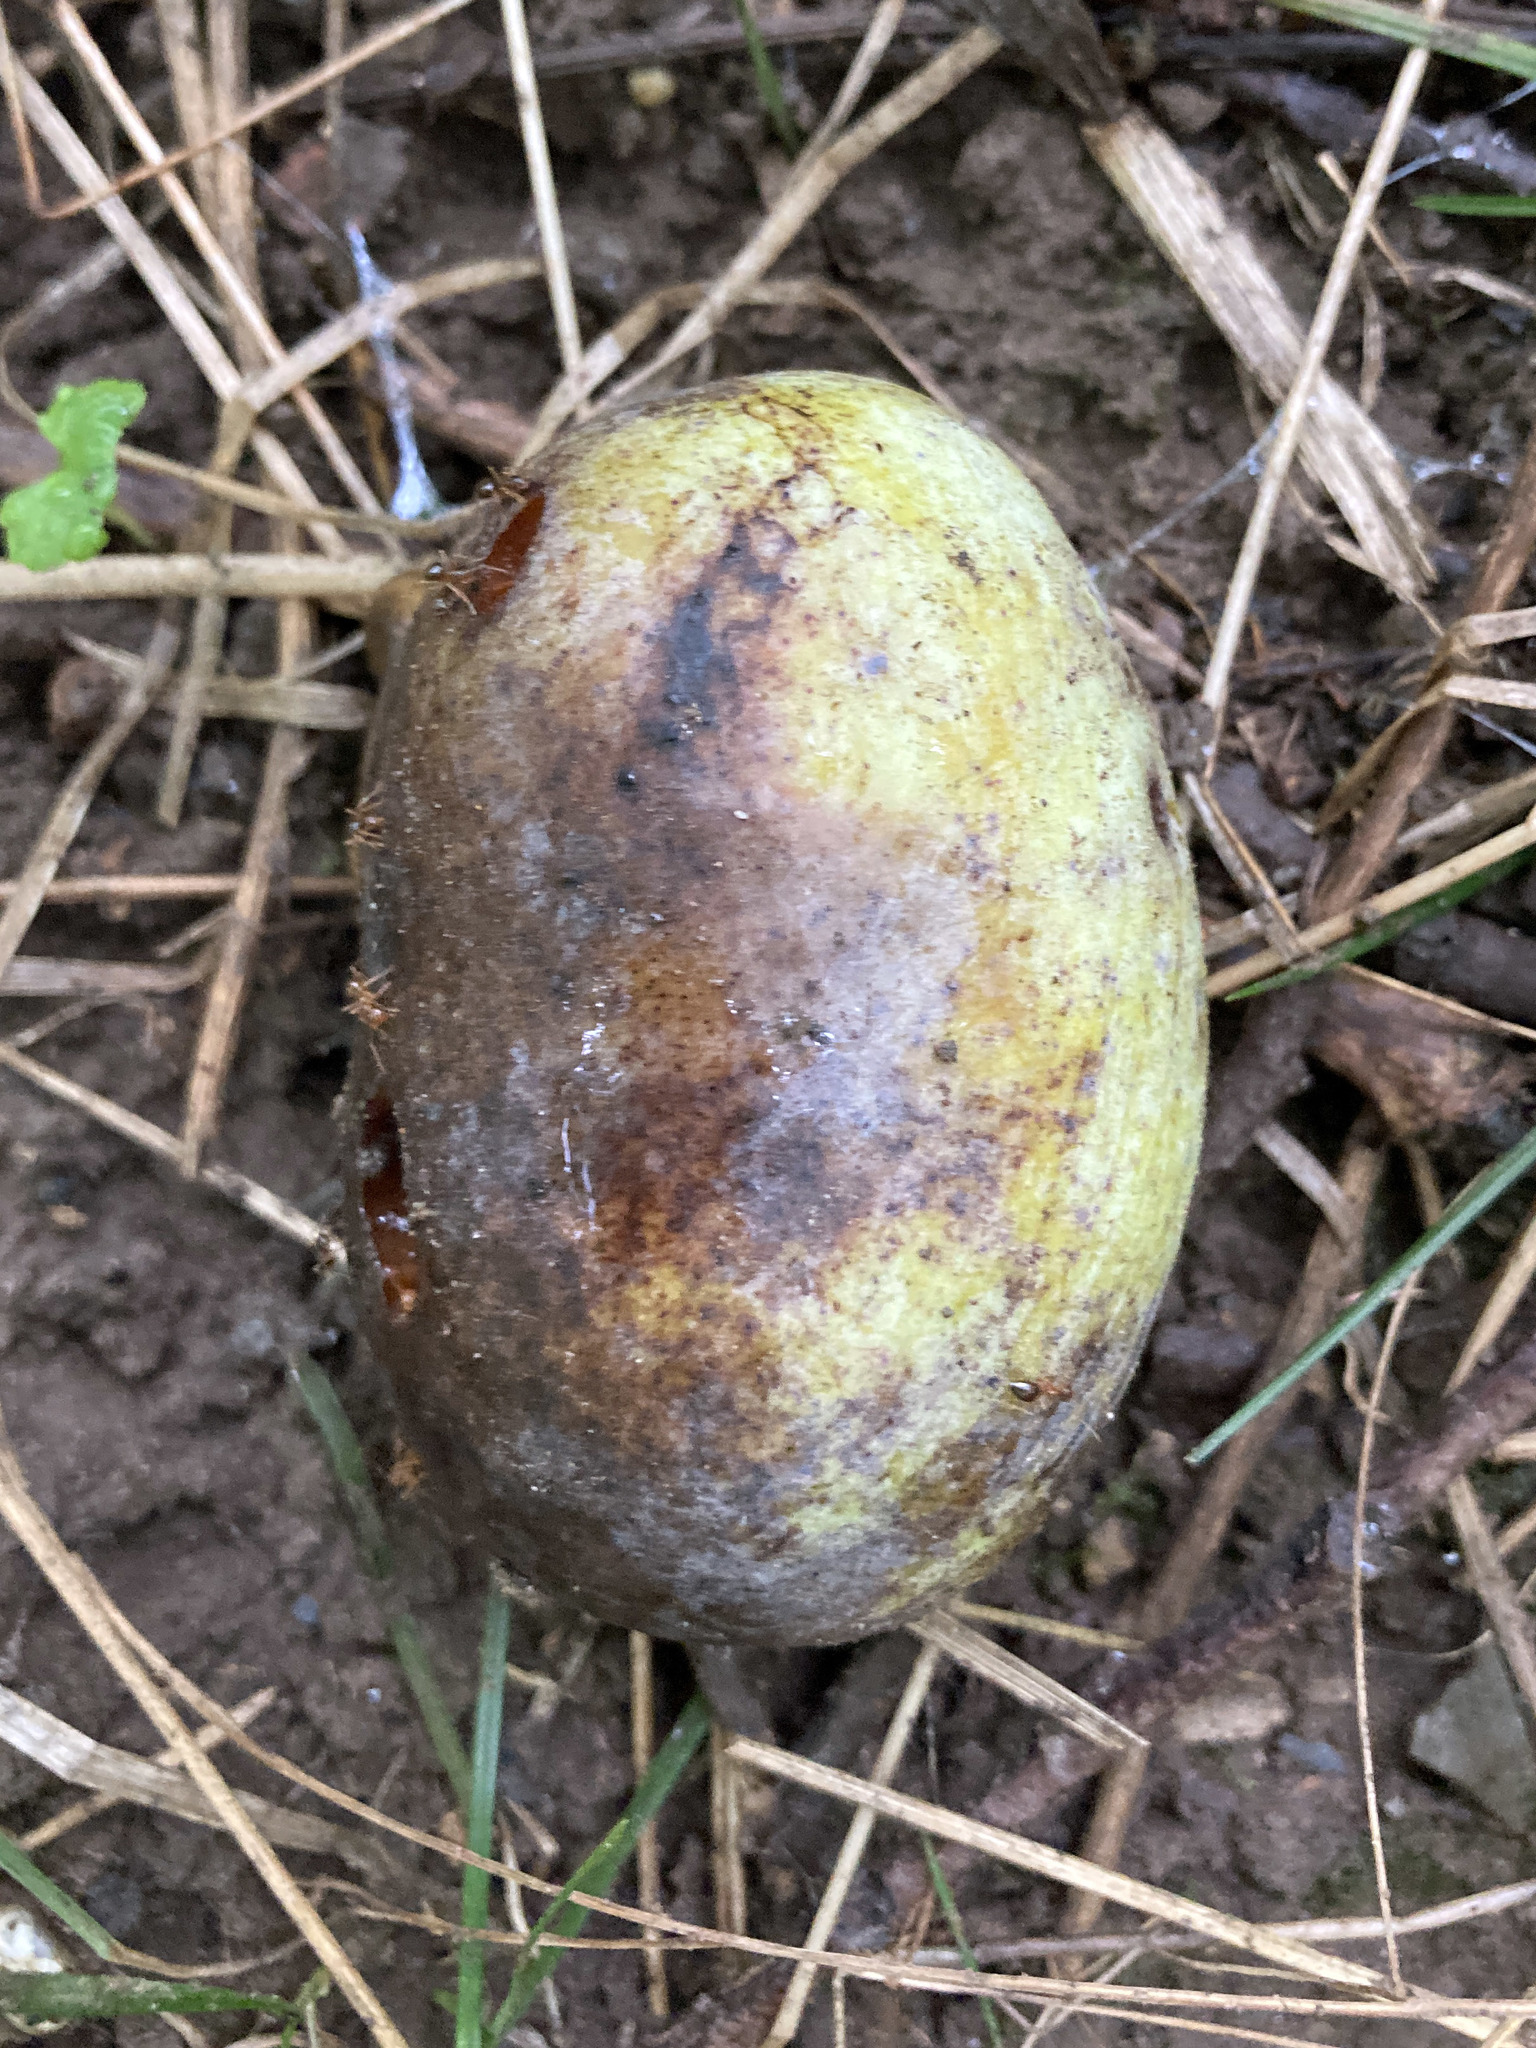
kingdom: Plantae
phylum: Tracheophyta
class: Magnoliopsida
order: Magnoliales
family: Annonaceae
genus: Asimina
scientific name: Asimina triloba
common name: Dog-banana
